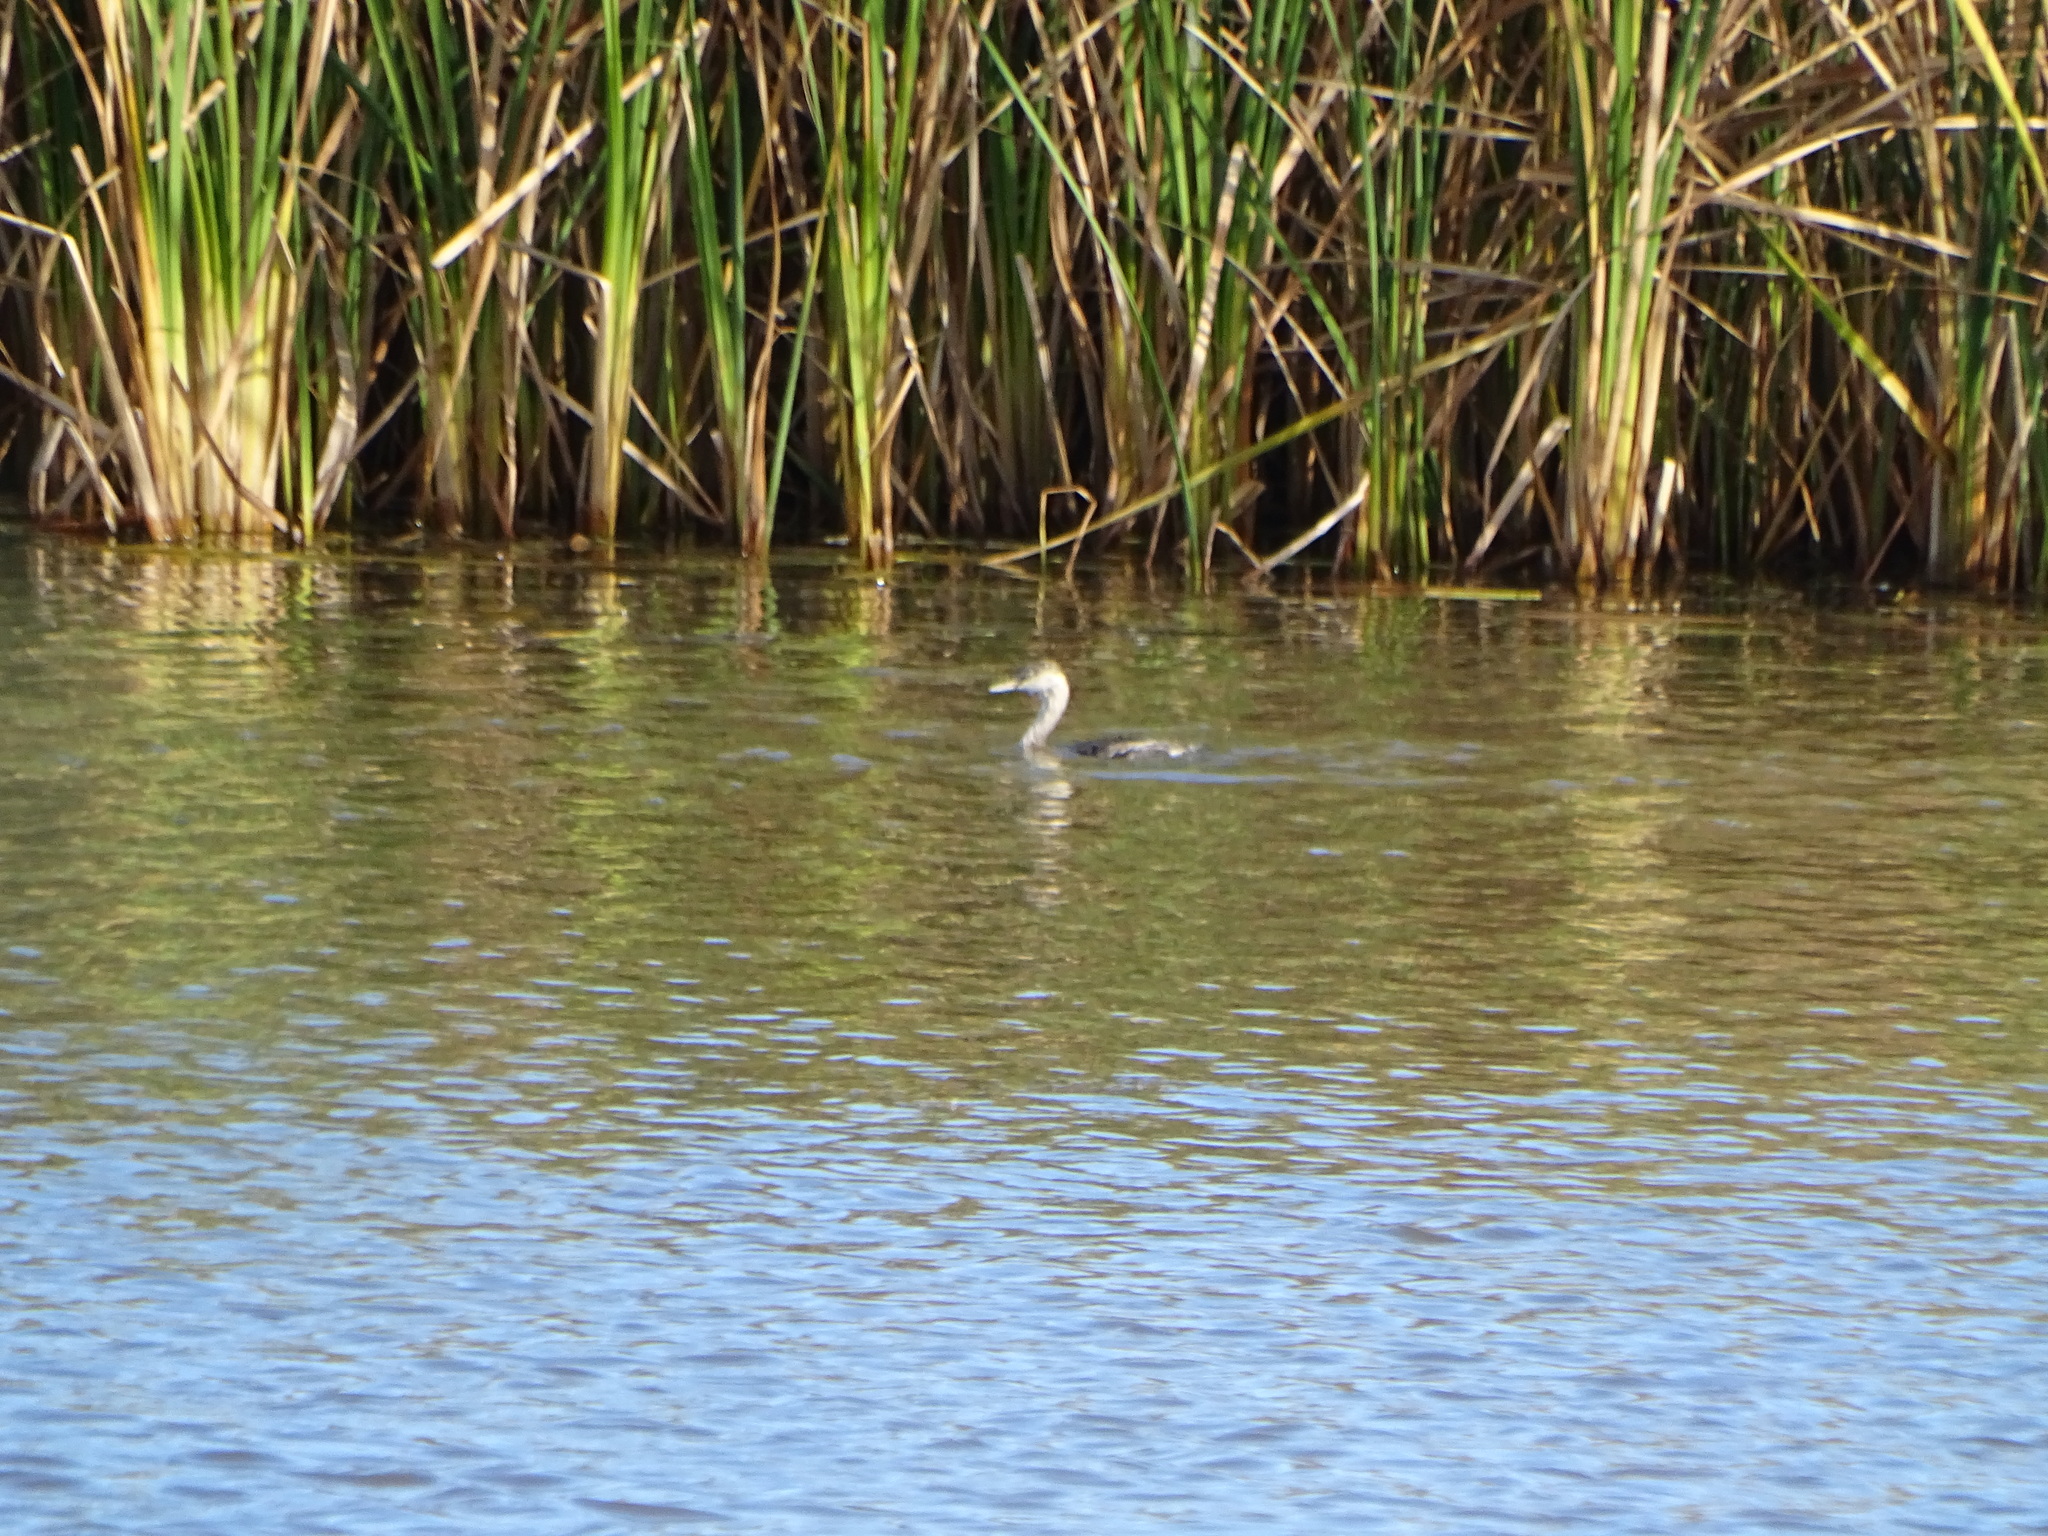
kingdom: Animalia
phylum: Chordata
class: Aves
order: Podicipediformes
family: Podicipedidae
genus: Poliocephalus
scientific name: Poliocephalus poliocephalus
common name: Hoary-headed grebe
